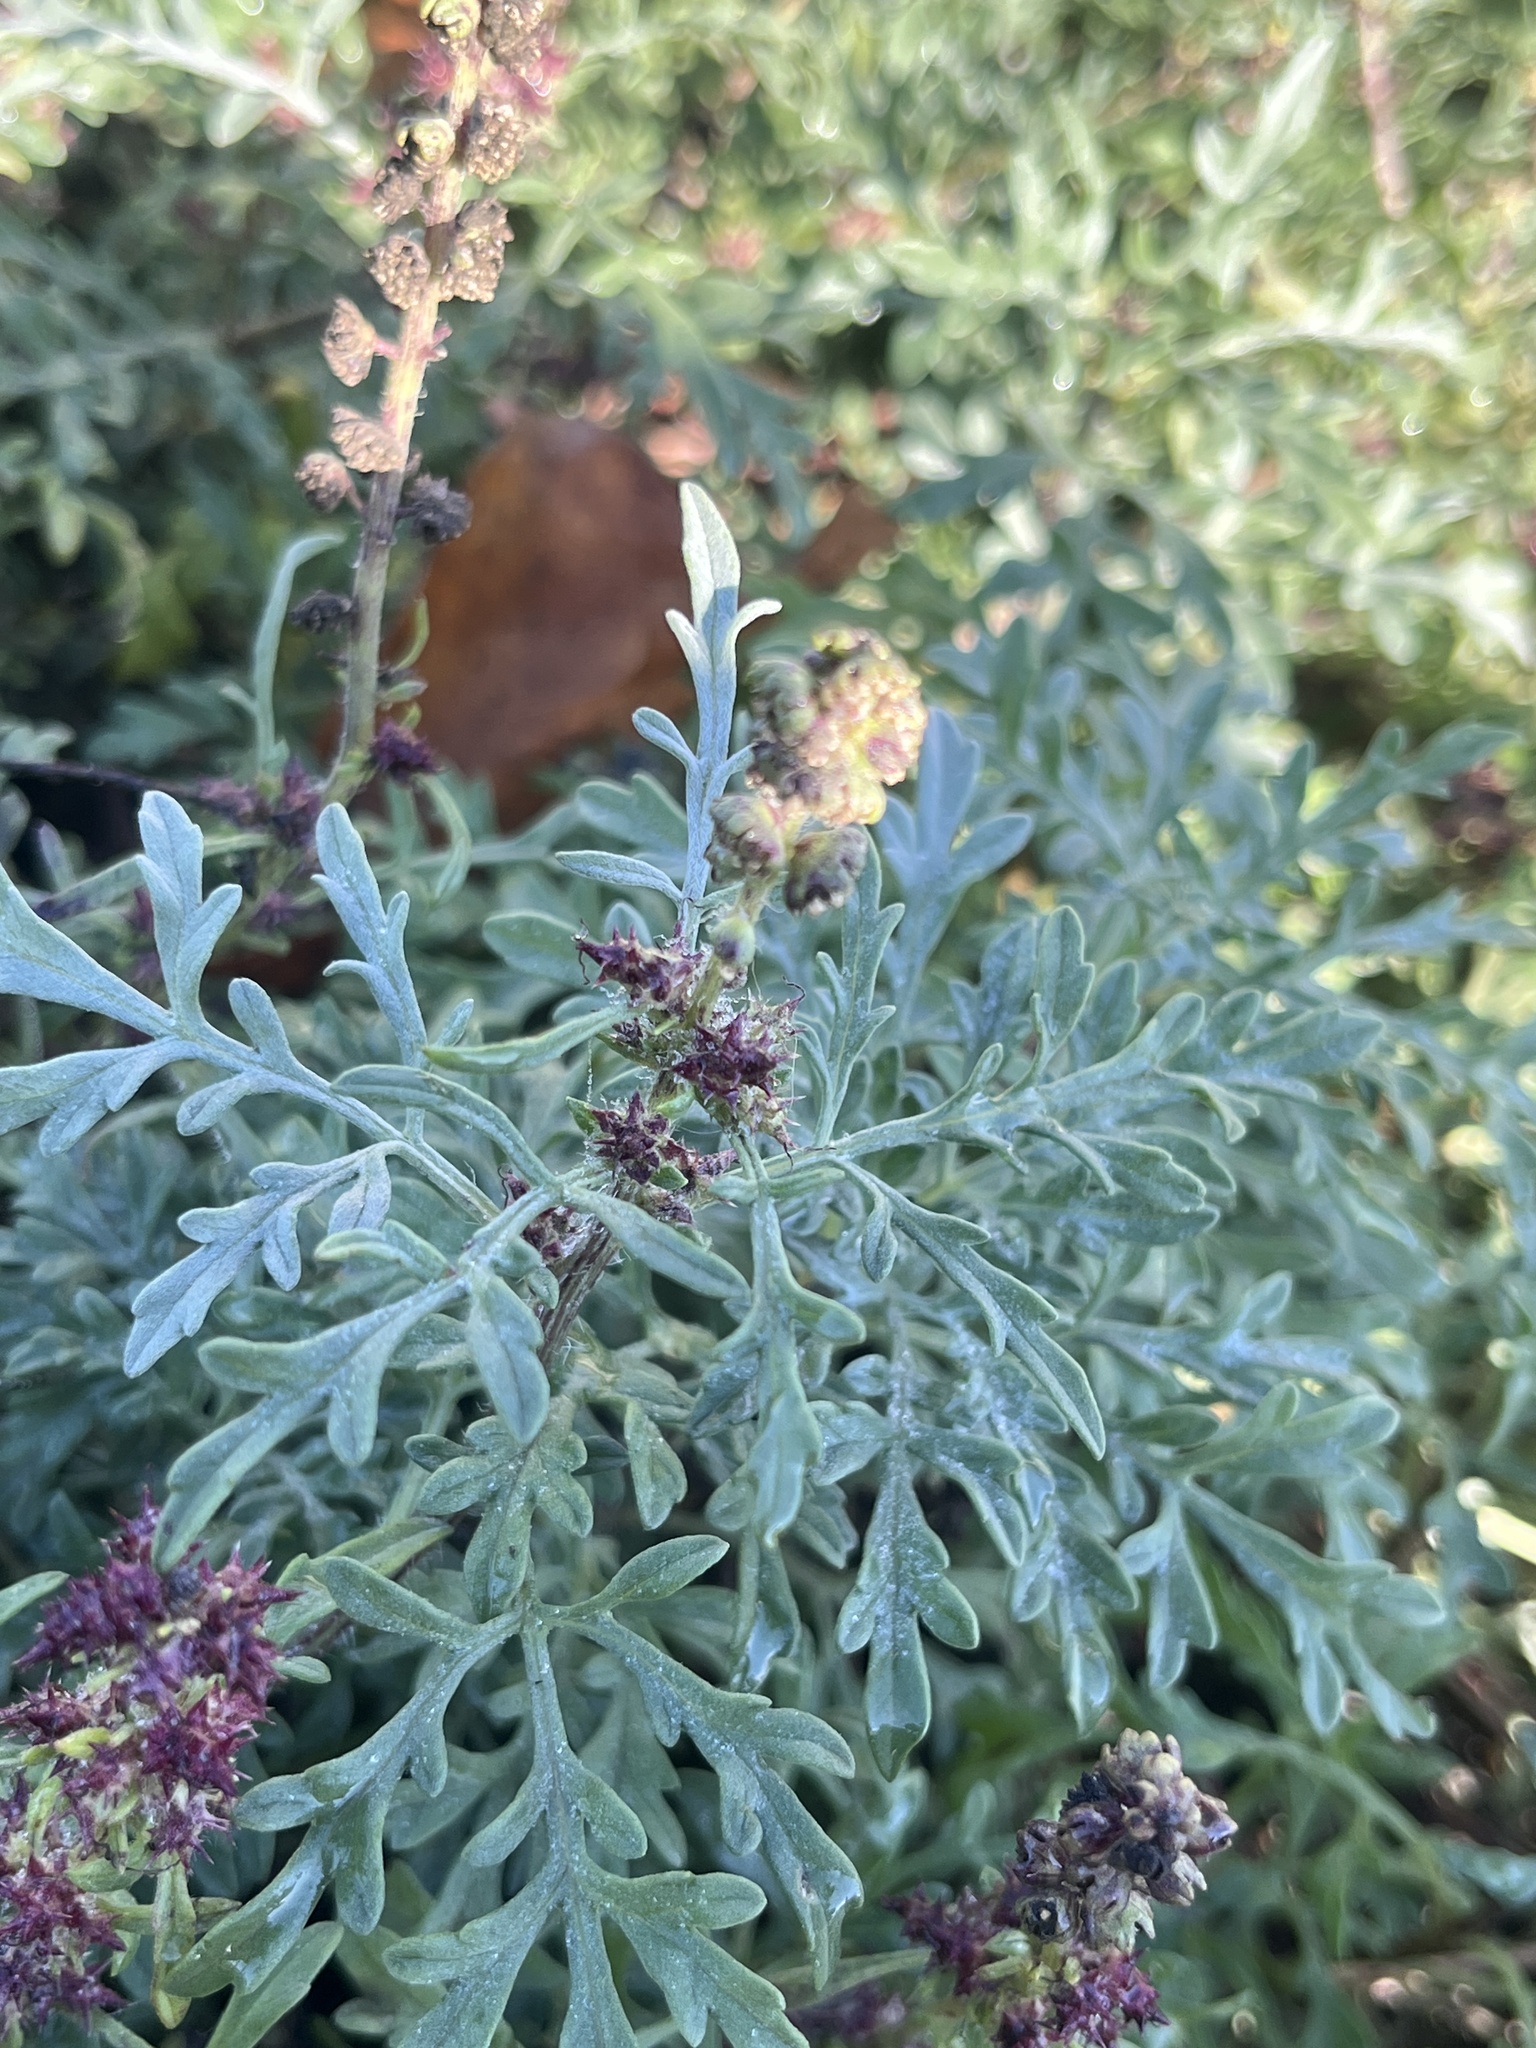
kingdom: Plantae
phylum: Tracheophyta
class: Magnoliopsida
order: Asterales
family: Asteraceae
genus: Ambrosia
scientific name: Ambrosia chamissonis
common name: Beachbur
